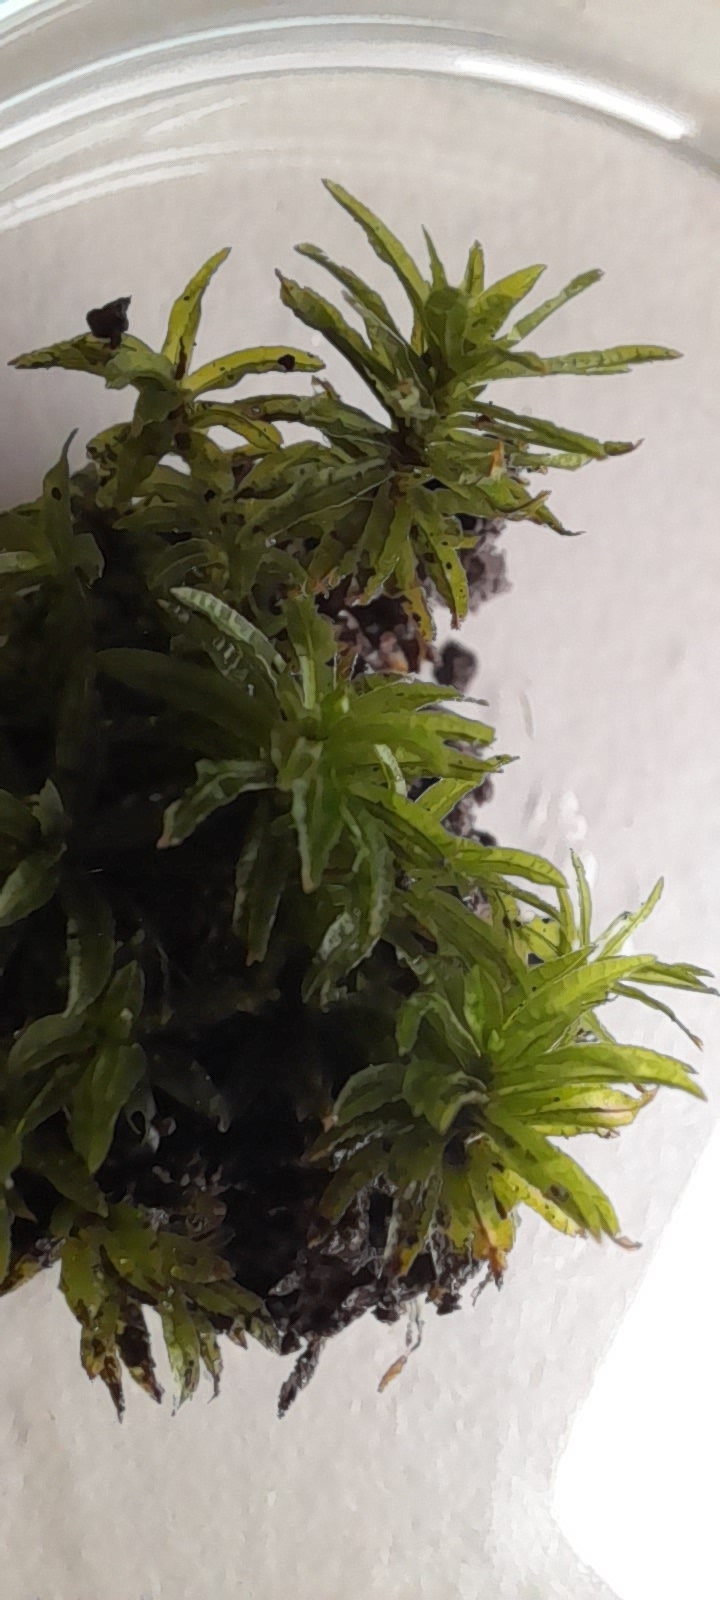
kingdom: Plantae
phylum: Bryophyta
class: Polytrichopsida
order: Polytrichales
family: Polytrichaceae
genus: Atrichum
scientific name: Atrichum undulatum
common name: Common smoothcap
